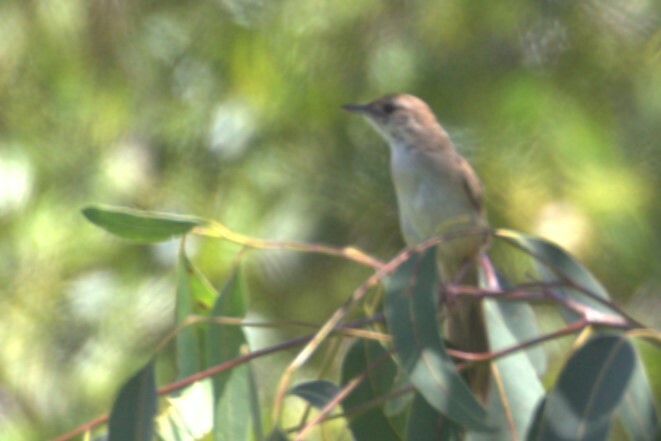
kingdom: Animalia
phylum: Chordata
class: Aves
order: Passeriformes
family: Locustellidae
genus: Megalurus
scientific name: Megalurus timoriensis
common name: Tawny grassbird
